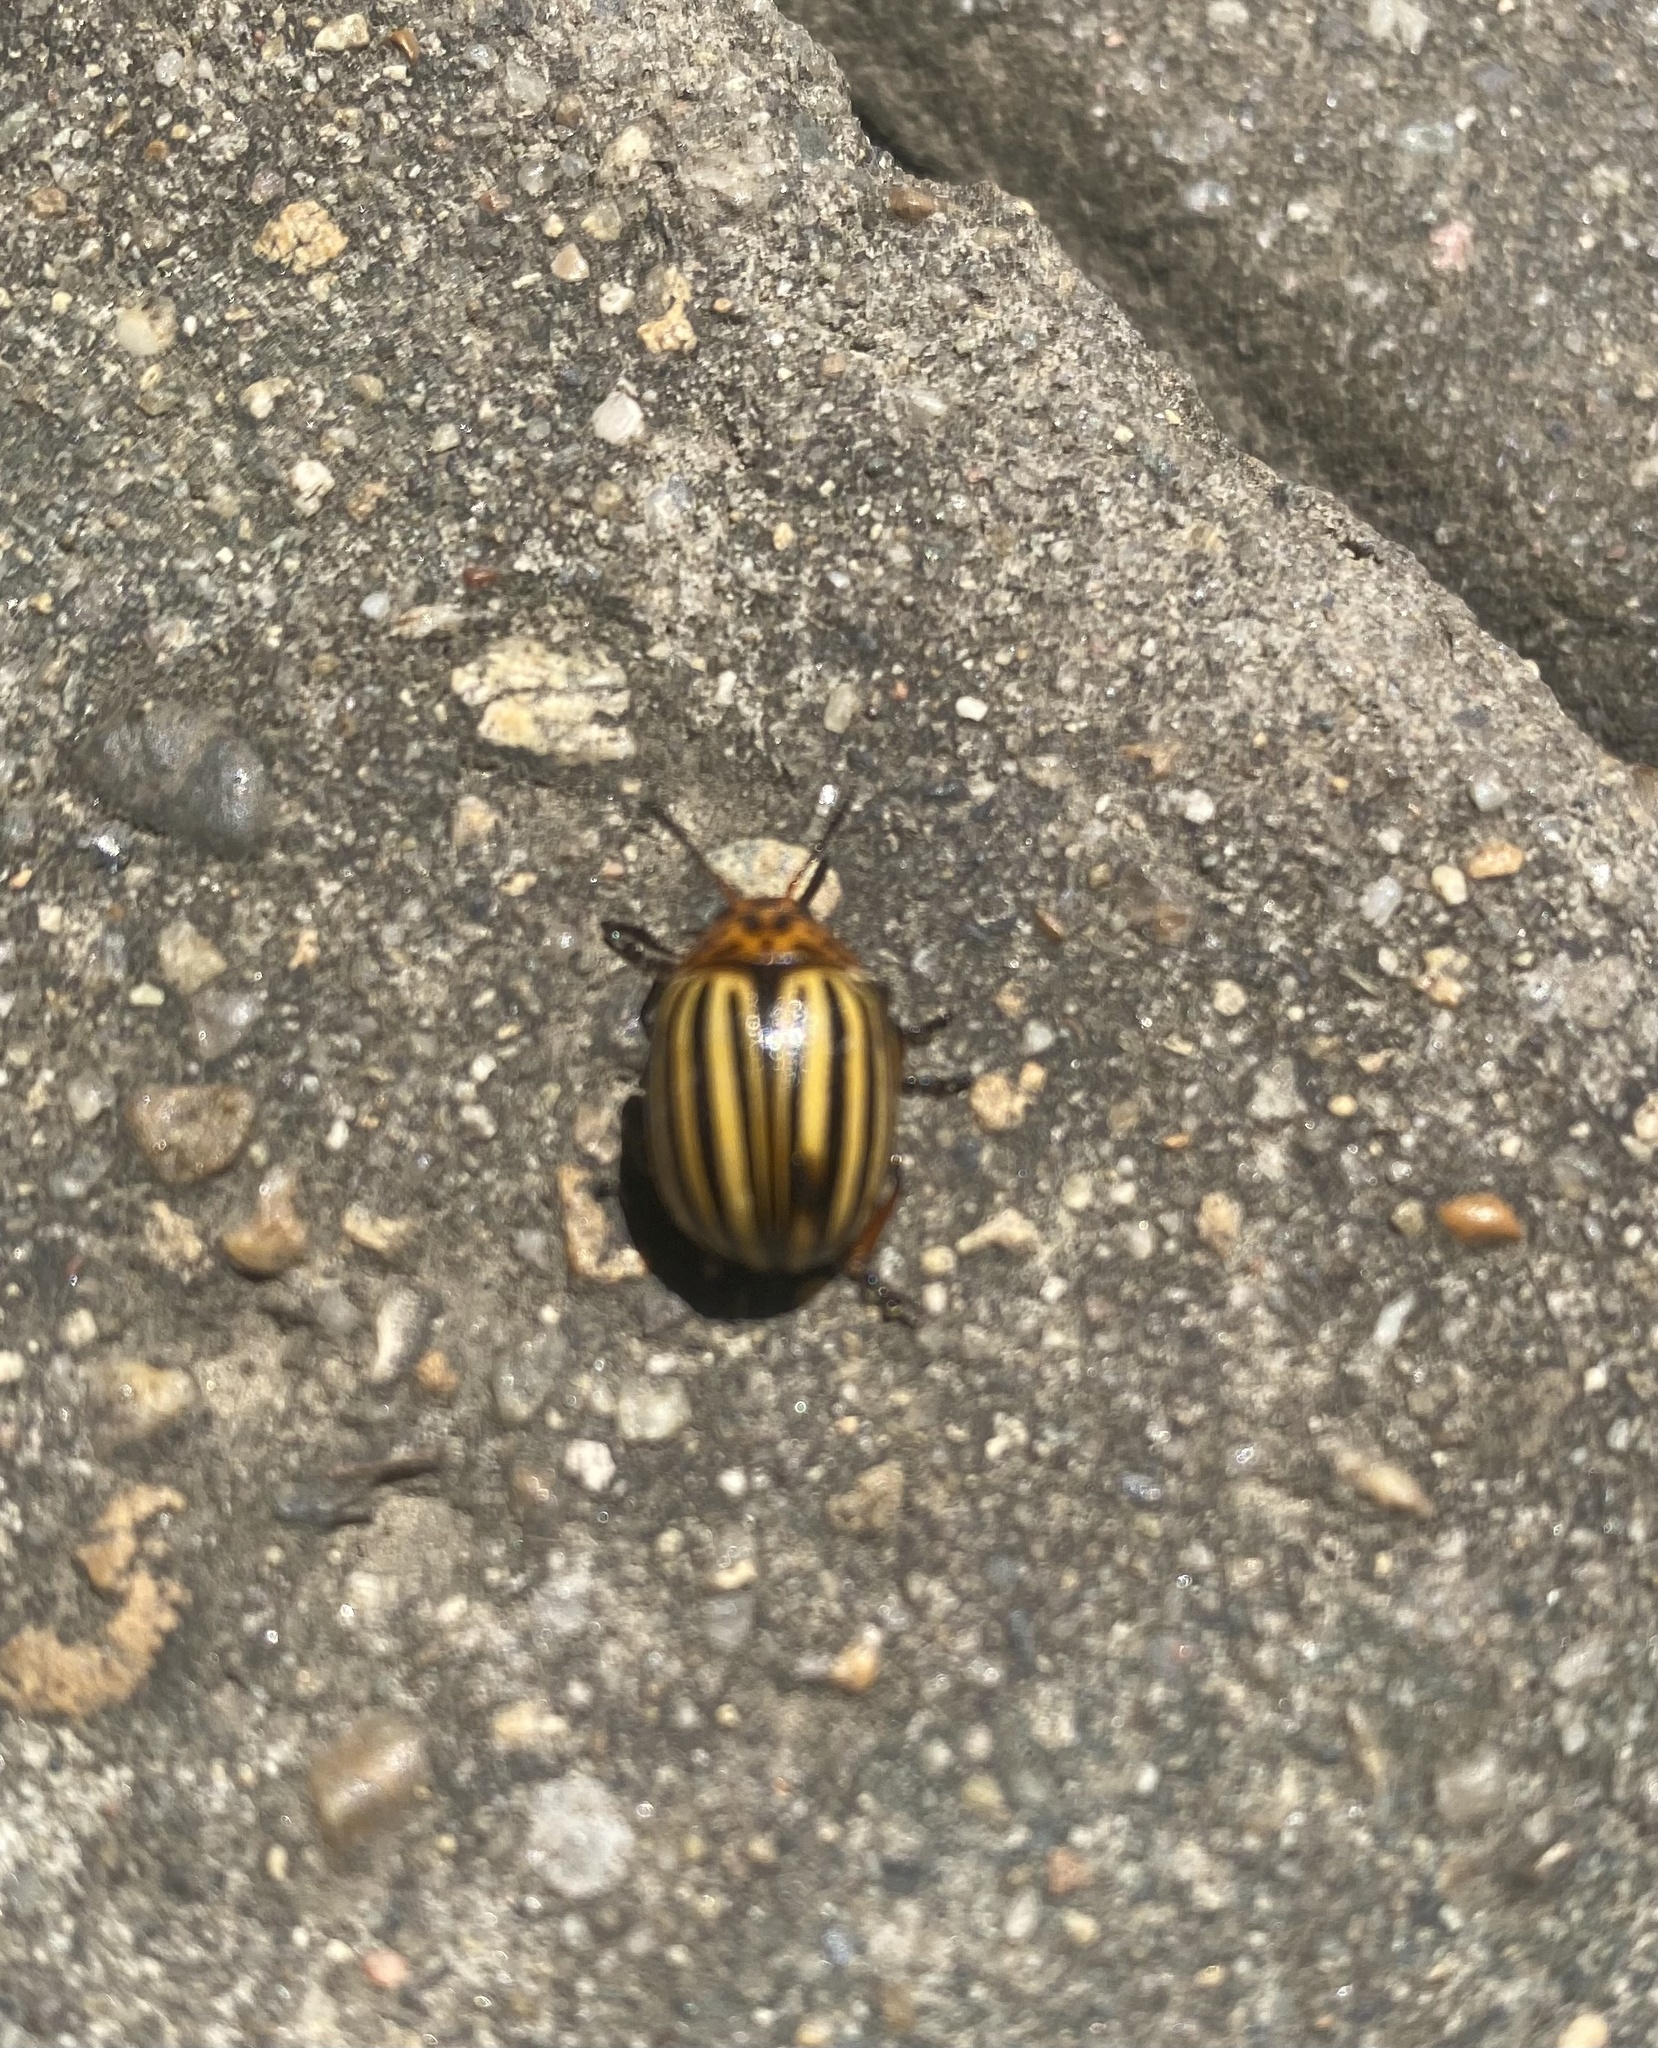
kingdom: Animalia
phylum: Arthropoda
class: Insecta
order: Coleoptera
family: Chrysomelidae
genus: Leptinotarsa
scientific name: Leptinotarsa decemlineata
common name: Colorado potato beetle
